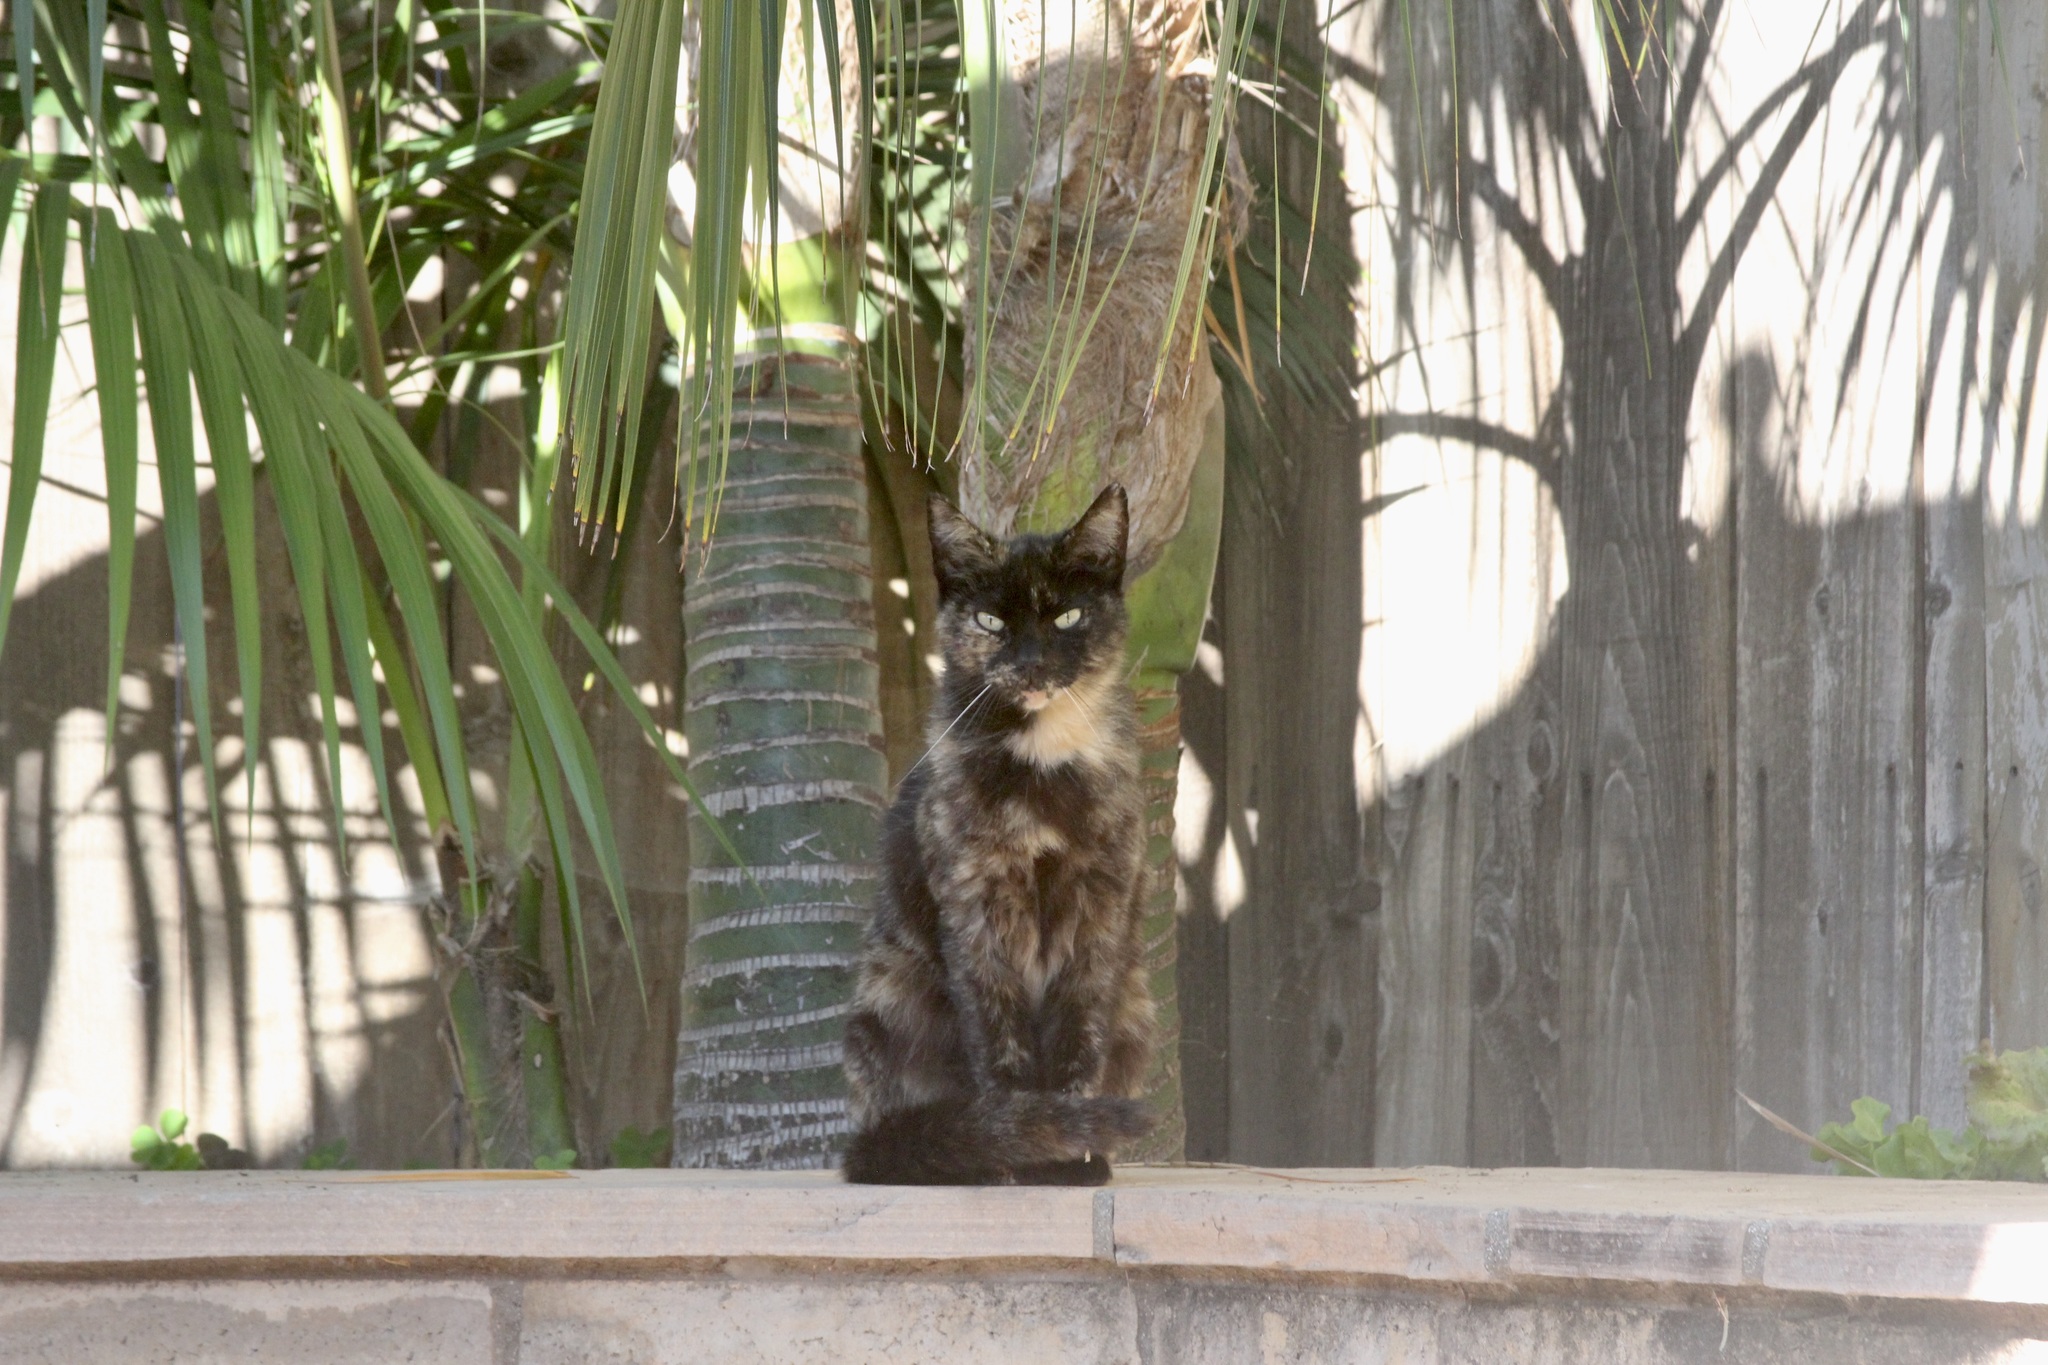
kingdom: Animalia
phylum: Chordata
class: Mammalia
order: Carnivora
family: Felidae
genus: Felis
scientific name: Felis catus
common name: Domestic cat
